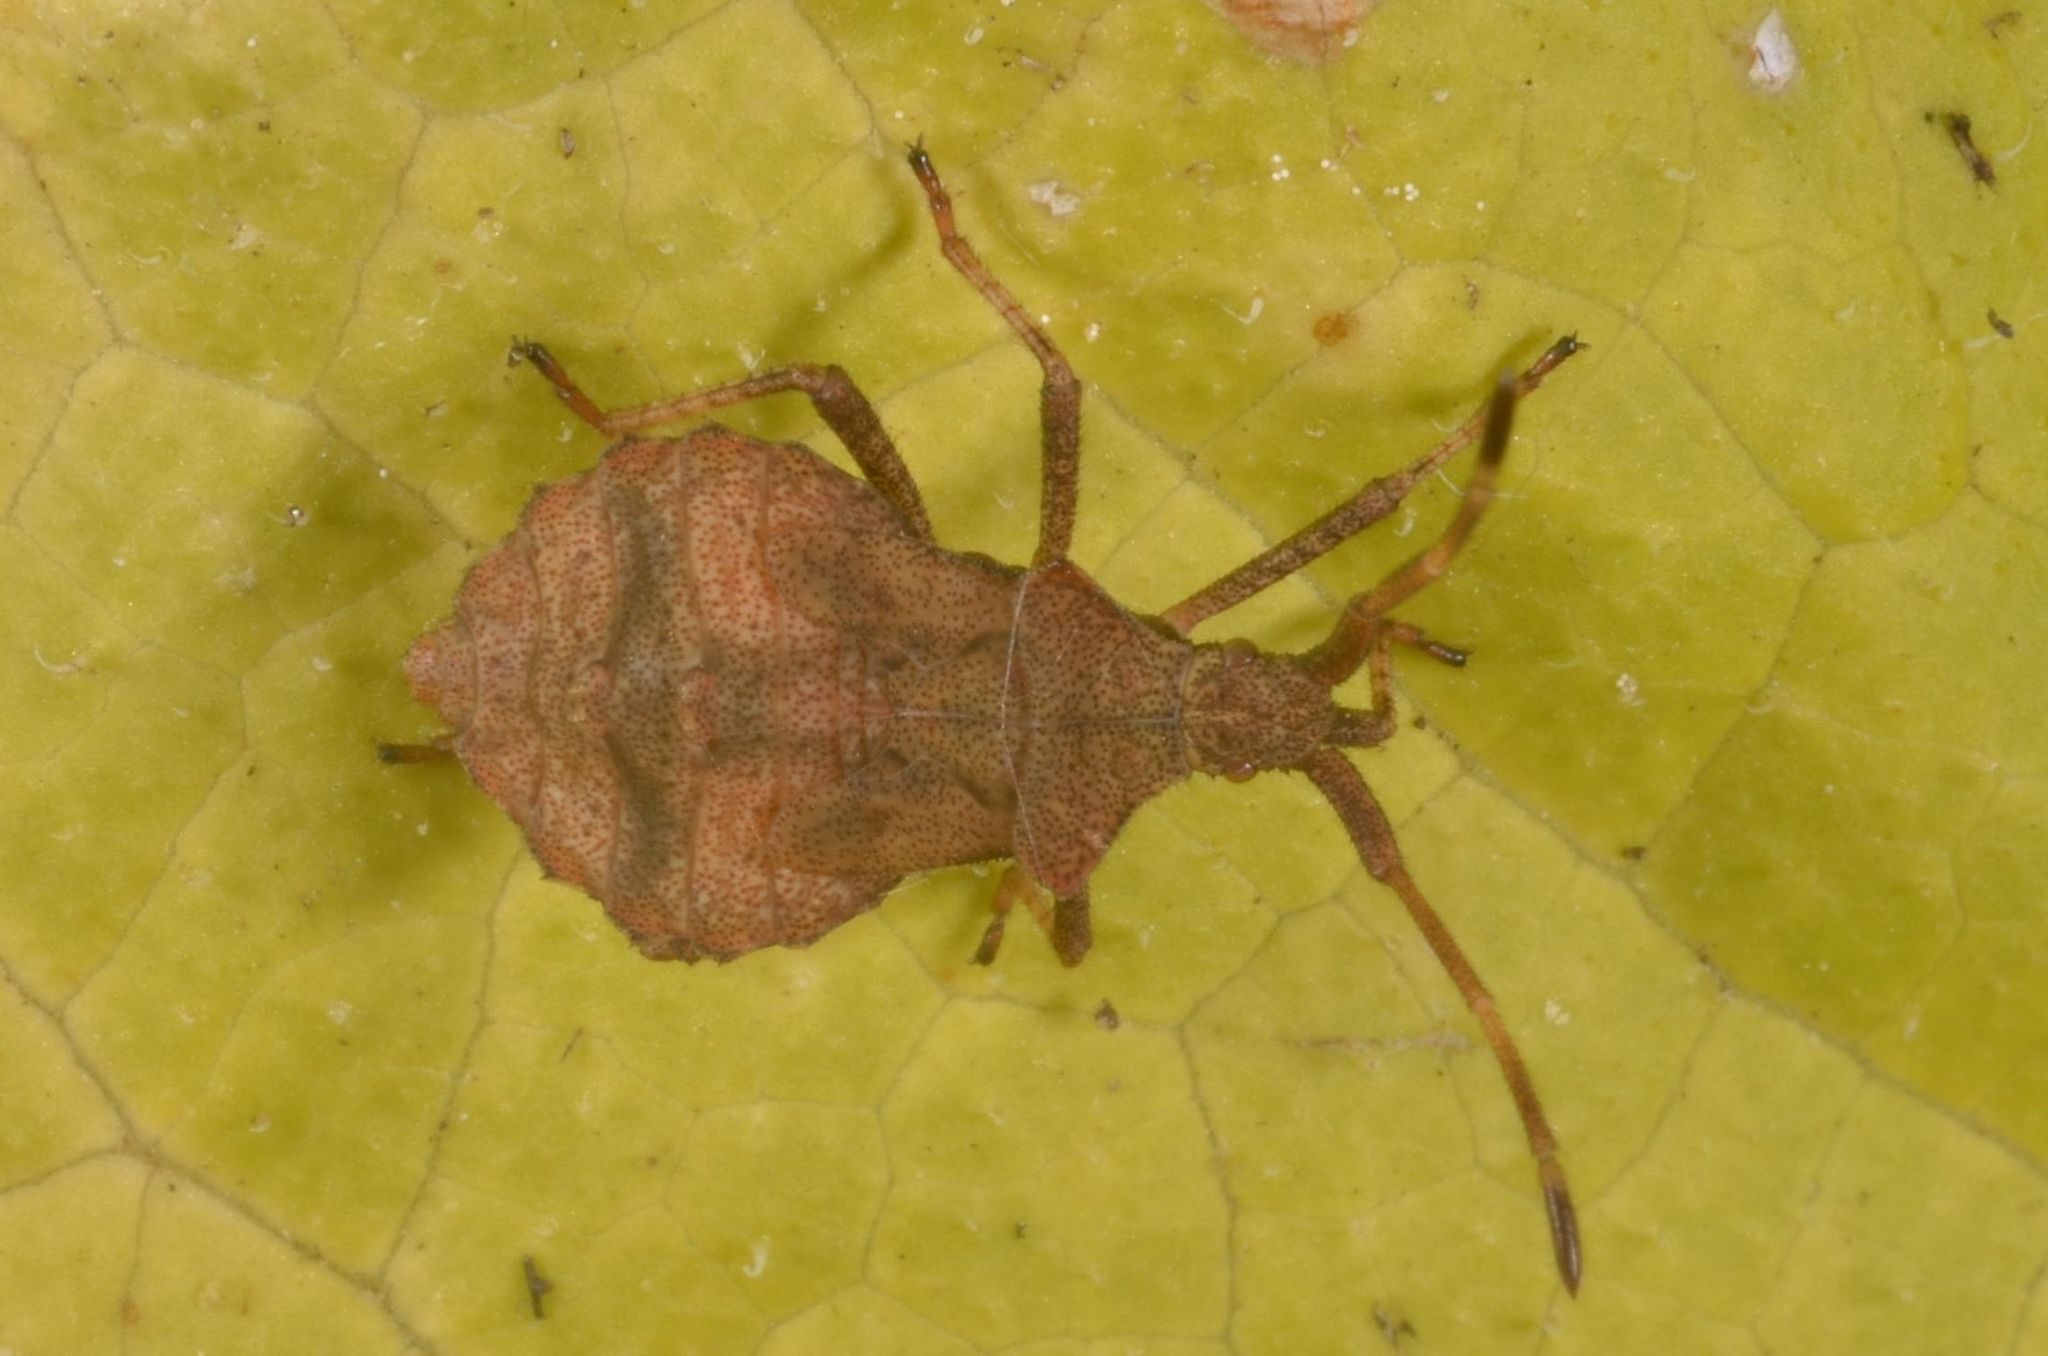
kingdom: Animalia
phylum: Arthropoda
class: Insecta
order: Hemiptera
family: Coreidae
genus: Coreus
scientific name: Coreus marginatus
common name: Dock bug
